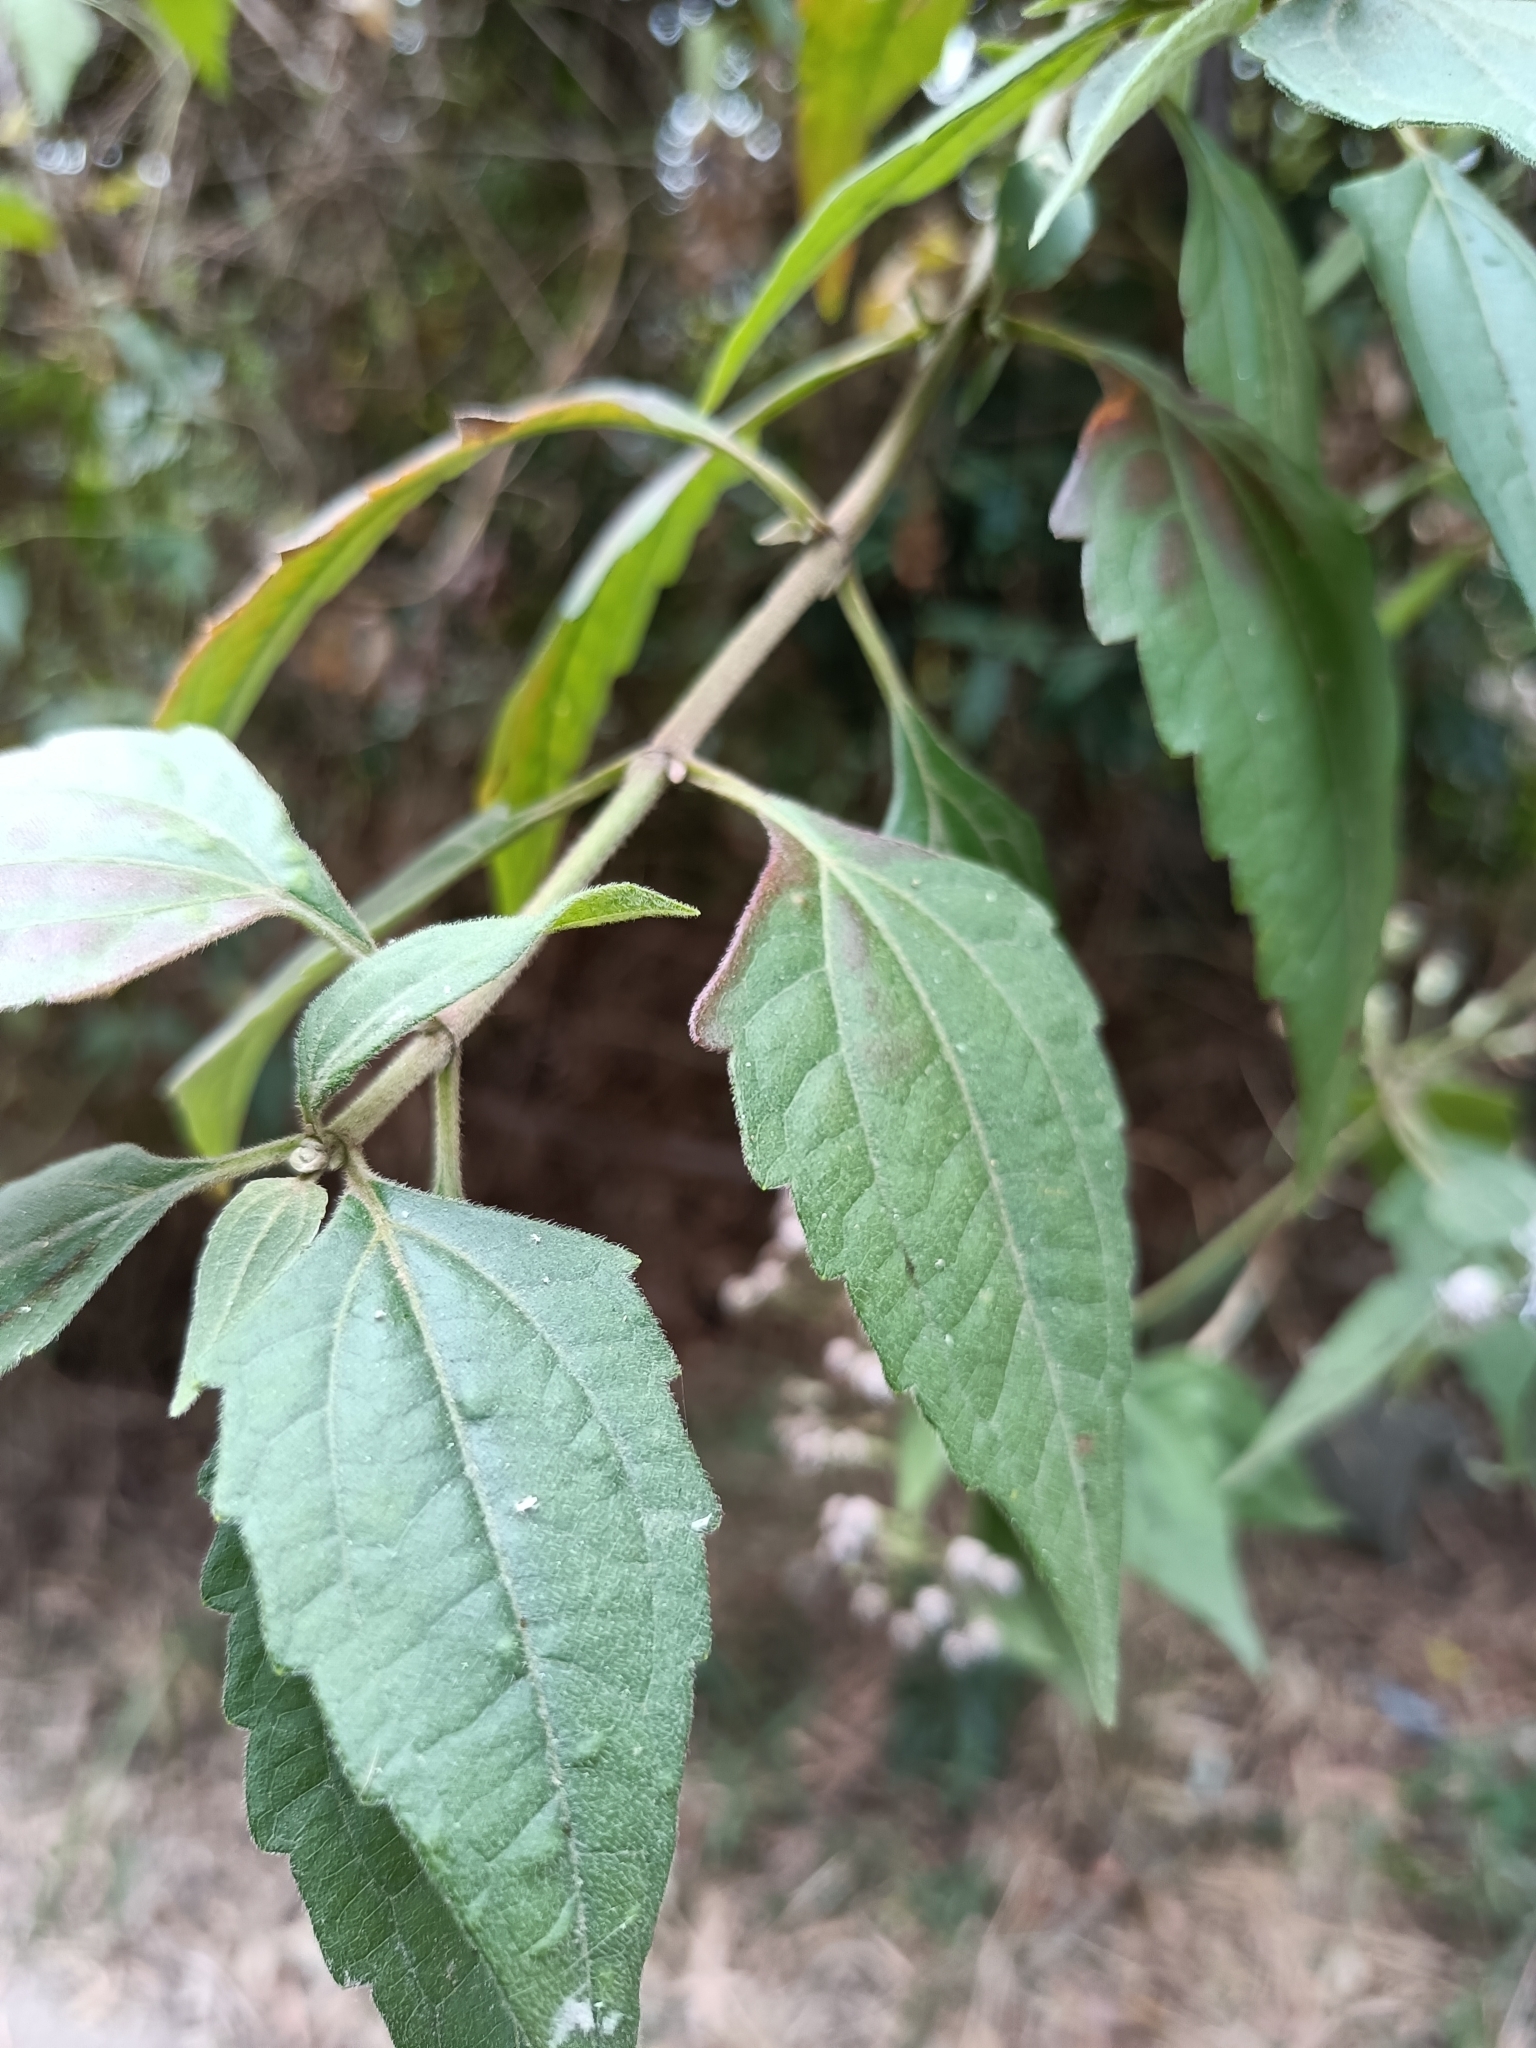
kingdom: Plantae
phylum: Tracheophyta
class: Magnoliopsida
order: Asterales
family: Asteraceae
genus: Chromolaena
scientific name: Chromolaena odorata
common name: Siamweed
